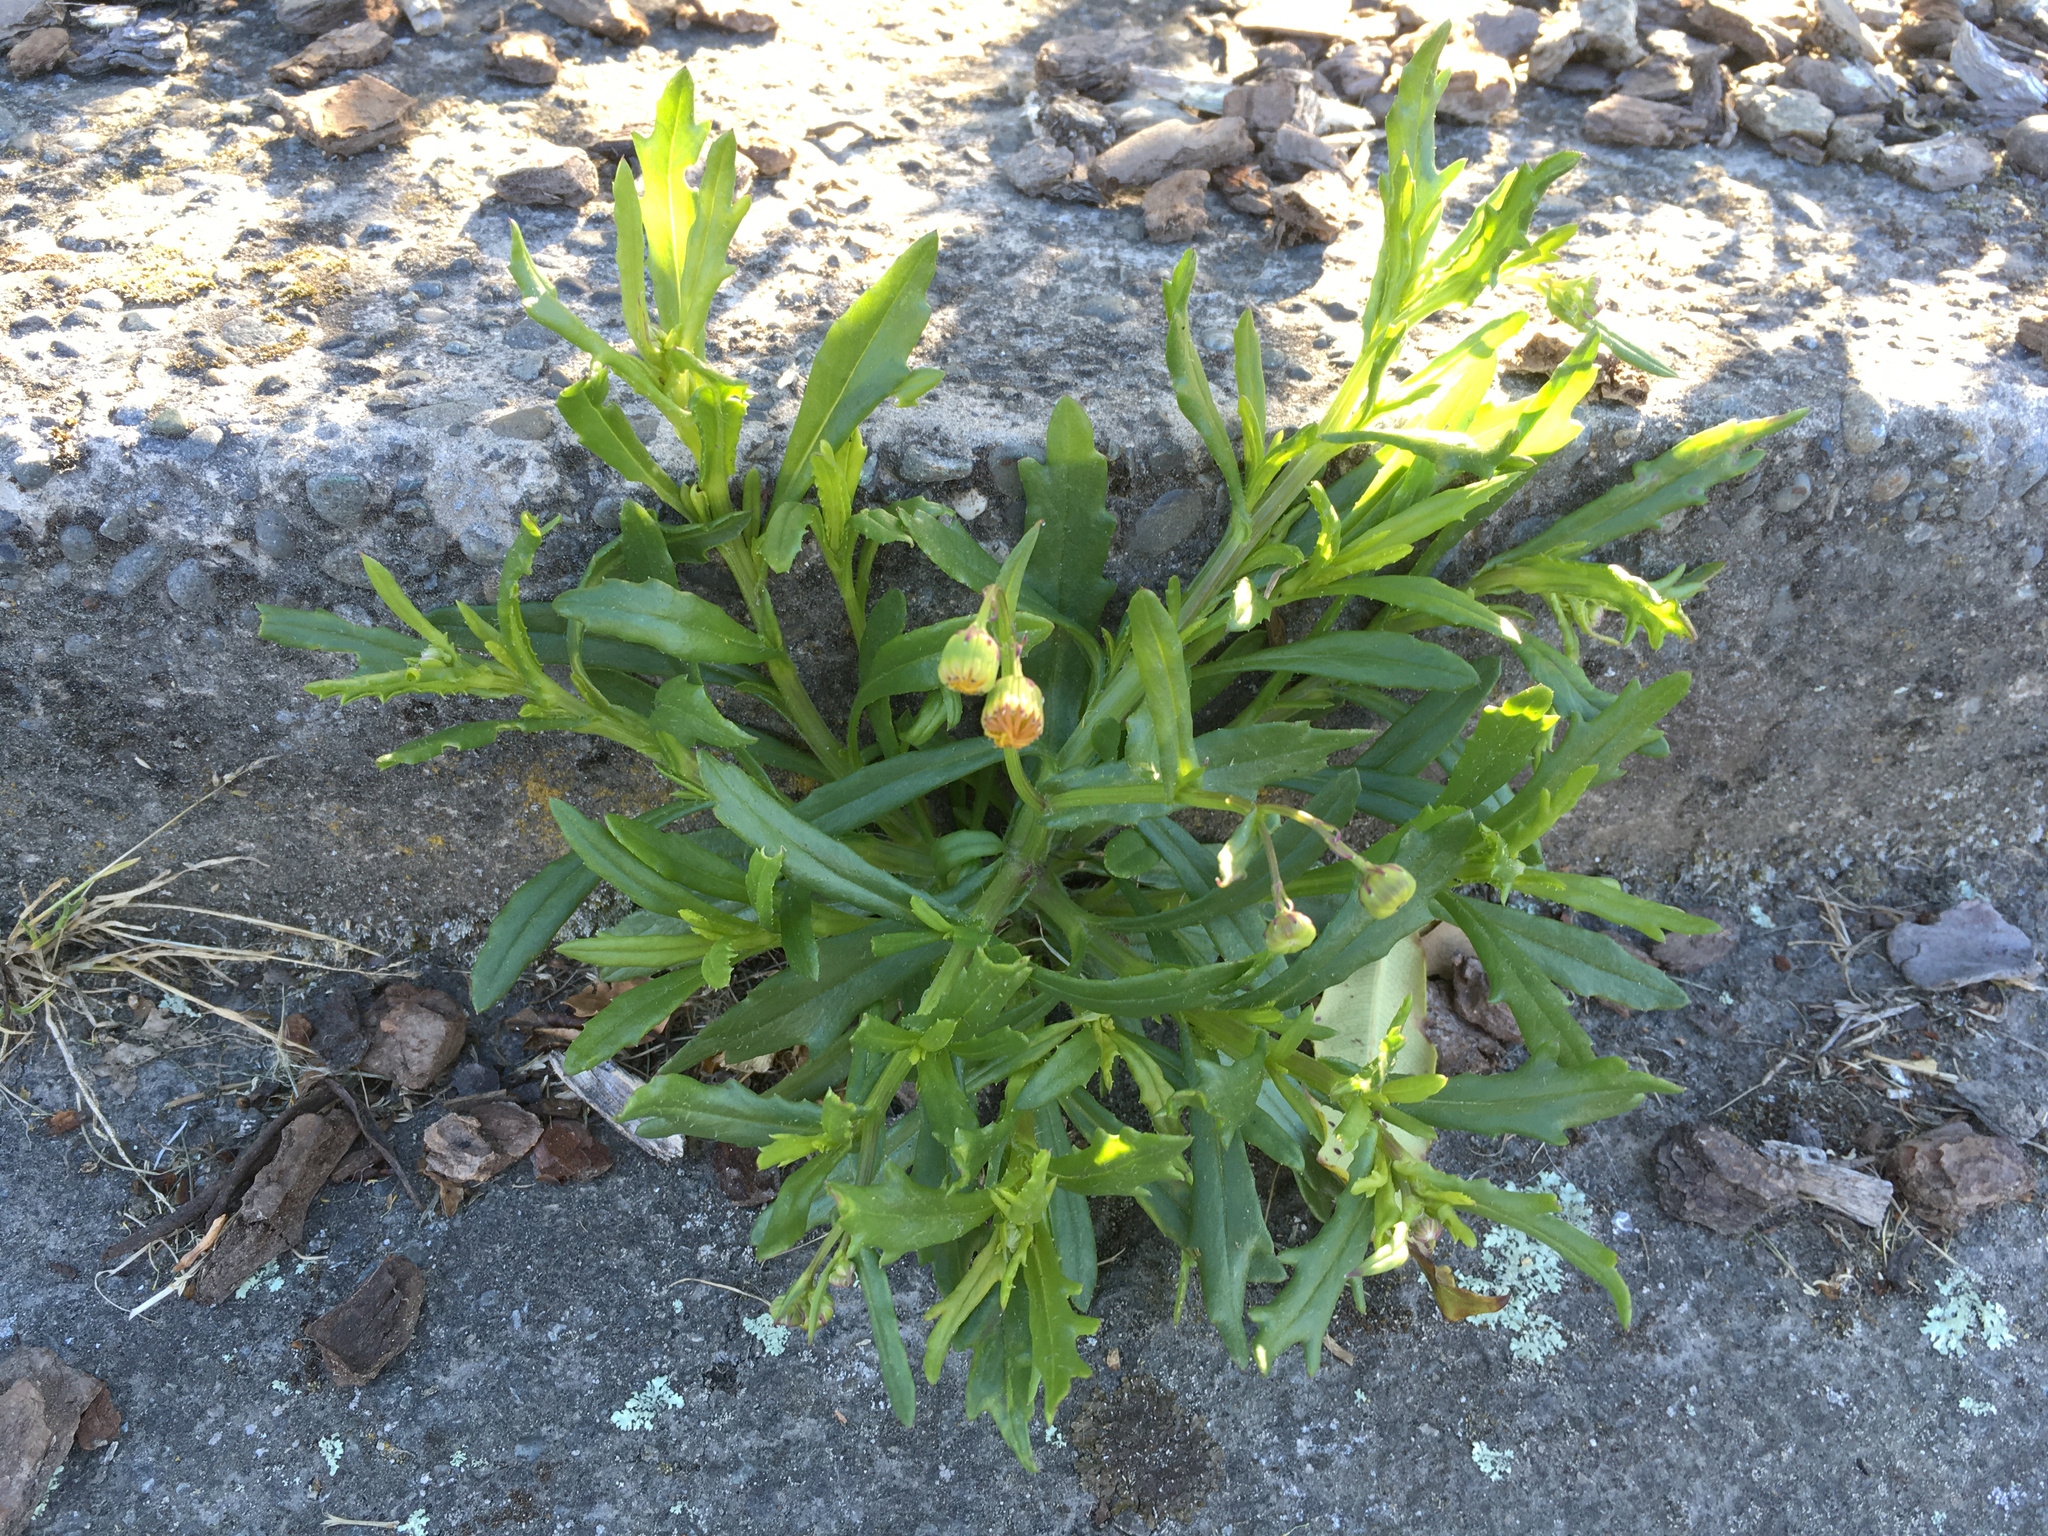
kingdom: Plantae
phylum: Tracheophyta
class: Magnoliopsida
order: Asterales
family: Asteraceae
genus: Senecio
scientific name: Senecio skirrhodon
